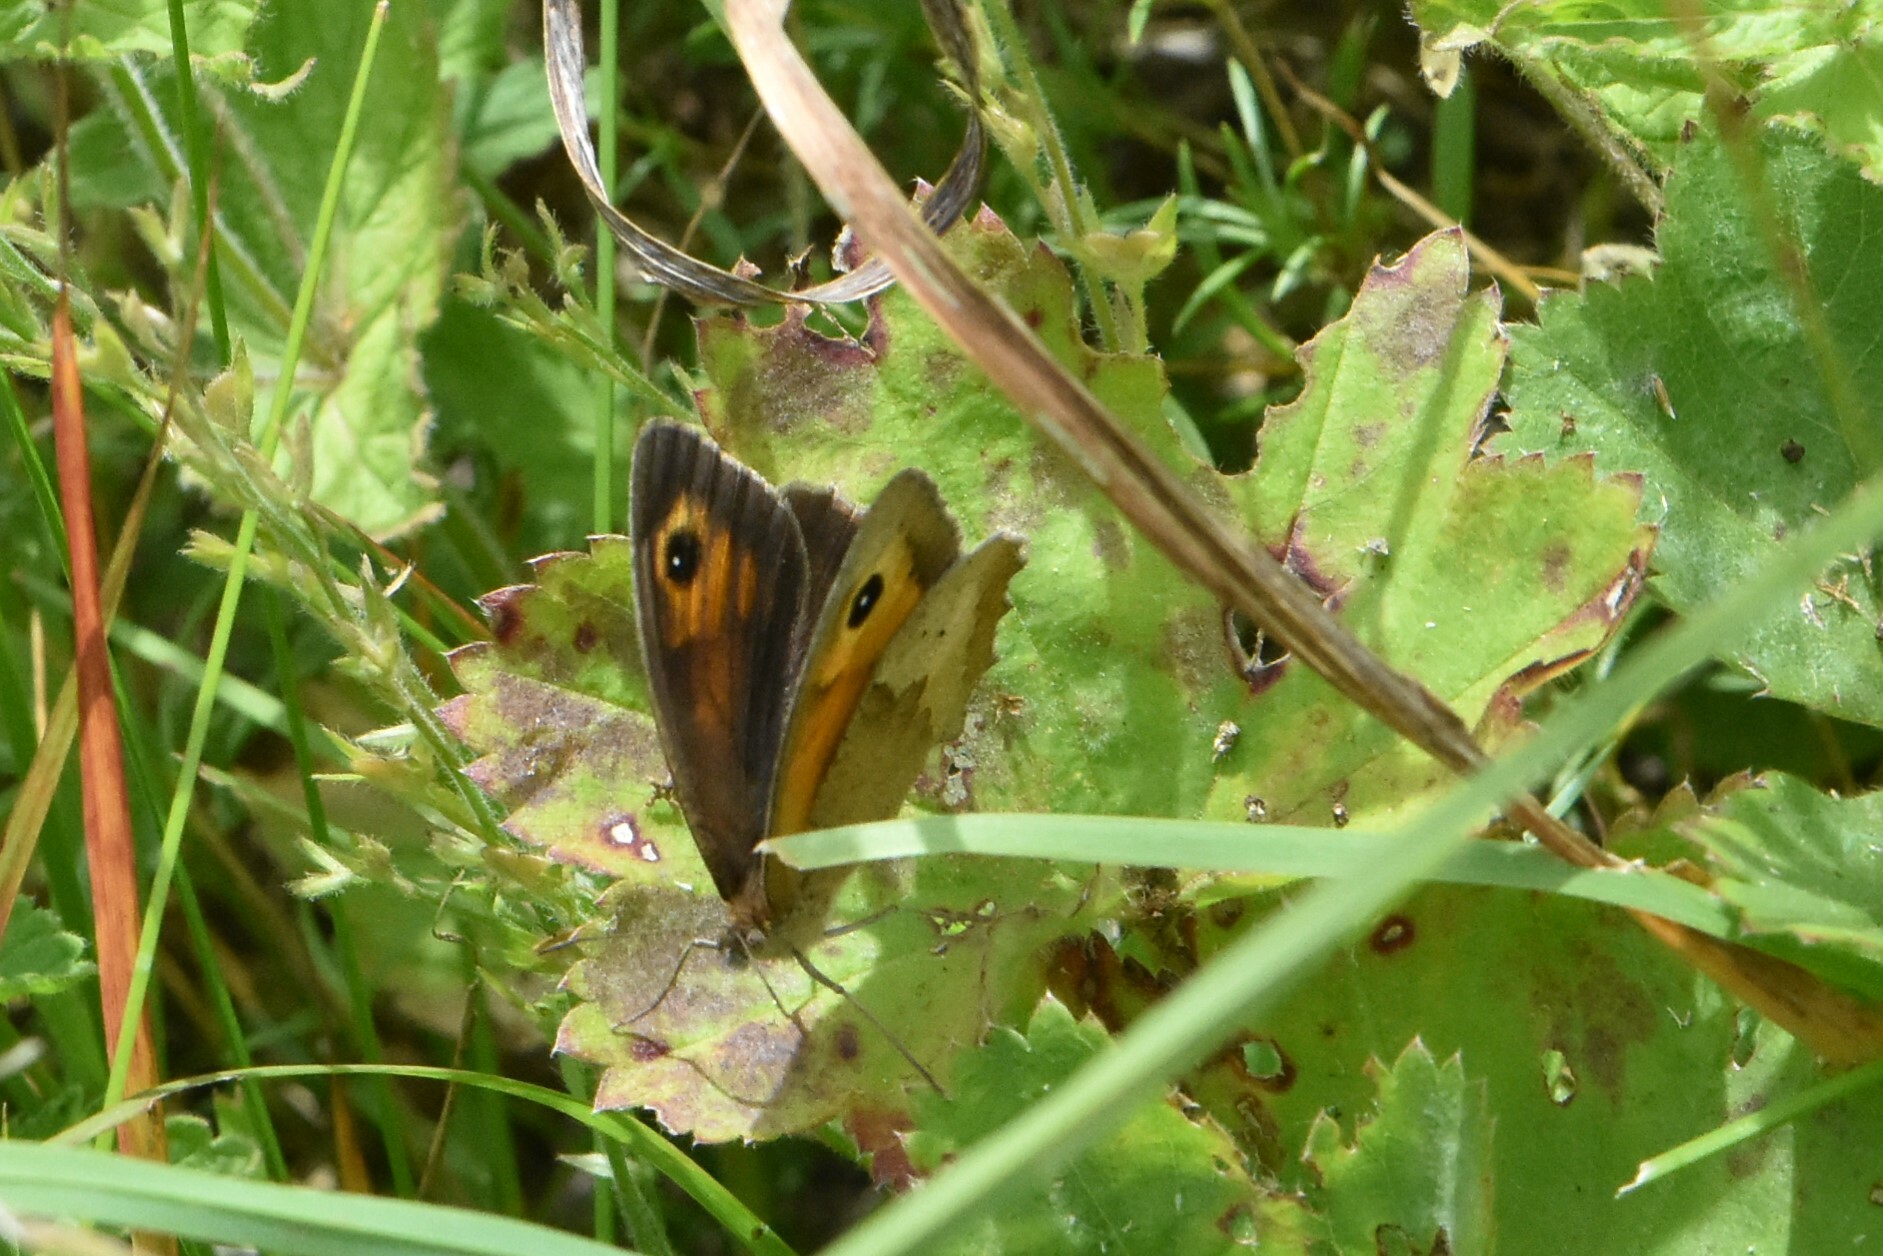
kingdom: Animalia
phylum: Arthropoda
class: Insecta
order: Lepidoptera
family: Nymphalidae
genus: Maniola
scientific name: Maniola jurtina
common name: Meadow brown
